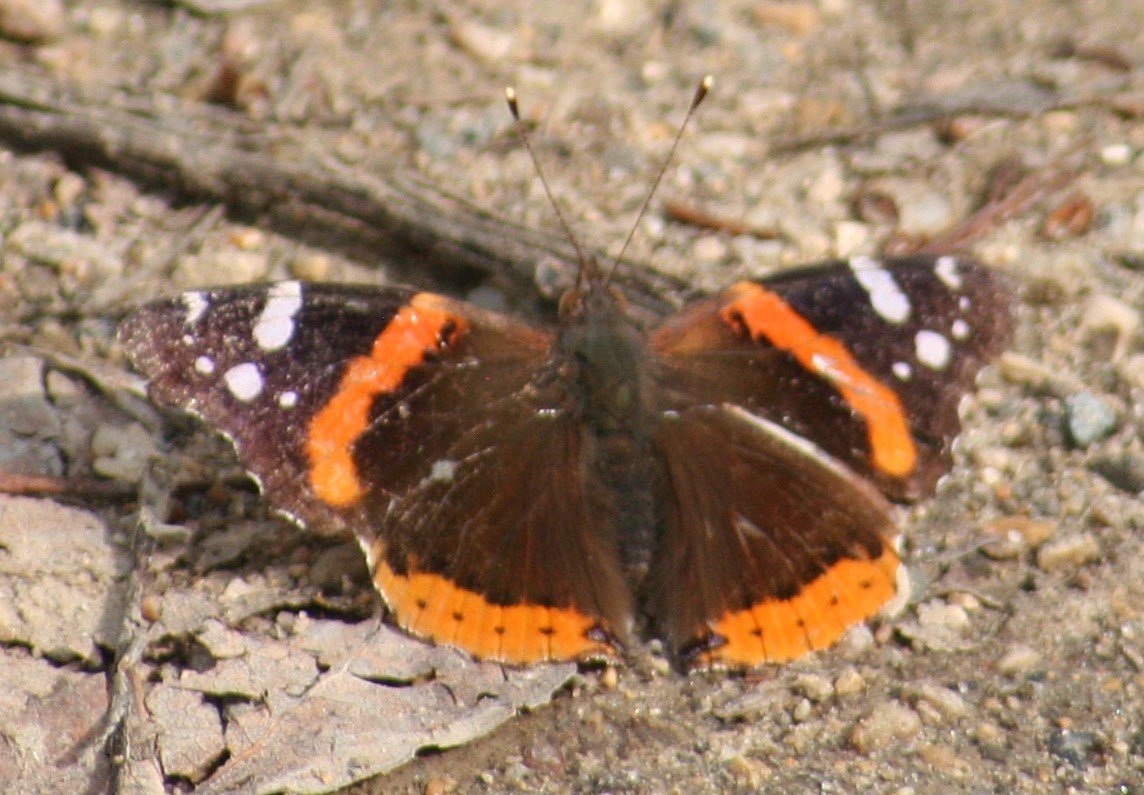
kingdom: Animalia
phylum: Arthropoda
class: Insecta
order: Lepidoptera
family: Nymphalidae
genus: Vanessa
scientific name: Vanessa atalanta
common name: Red admiral
